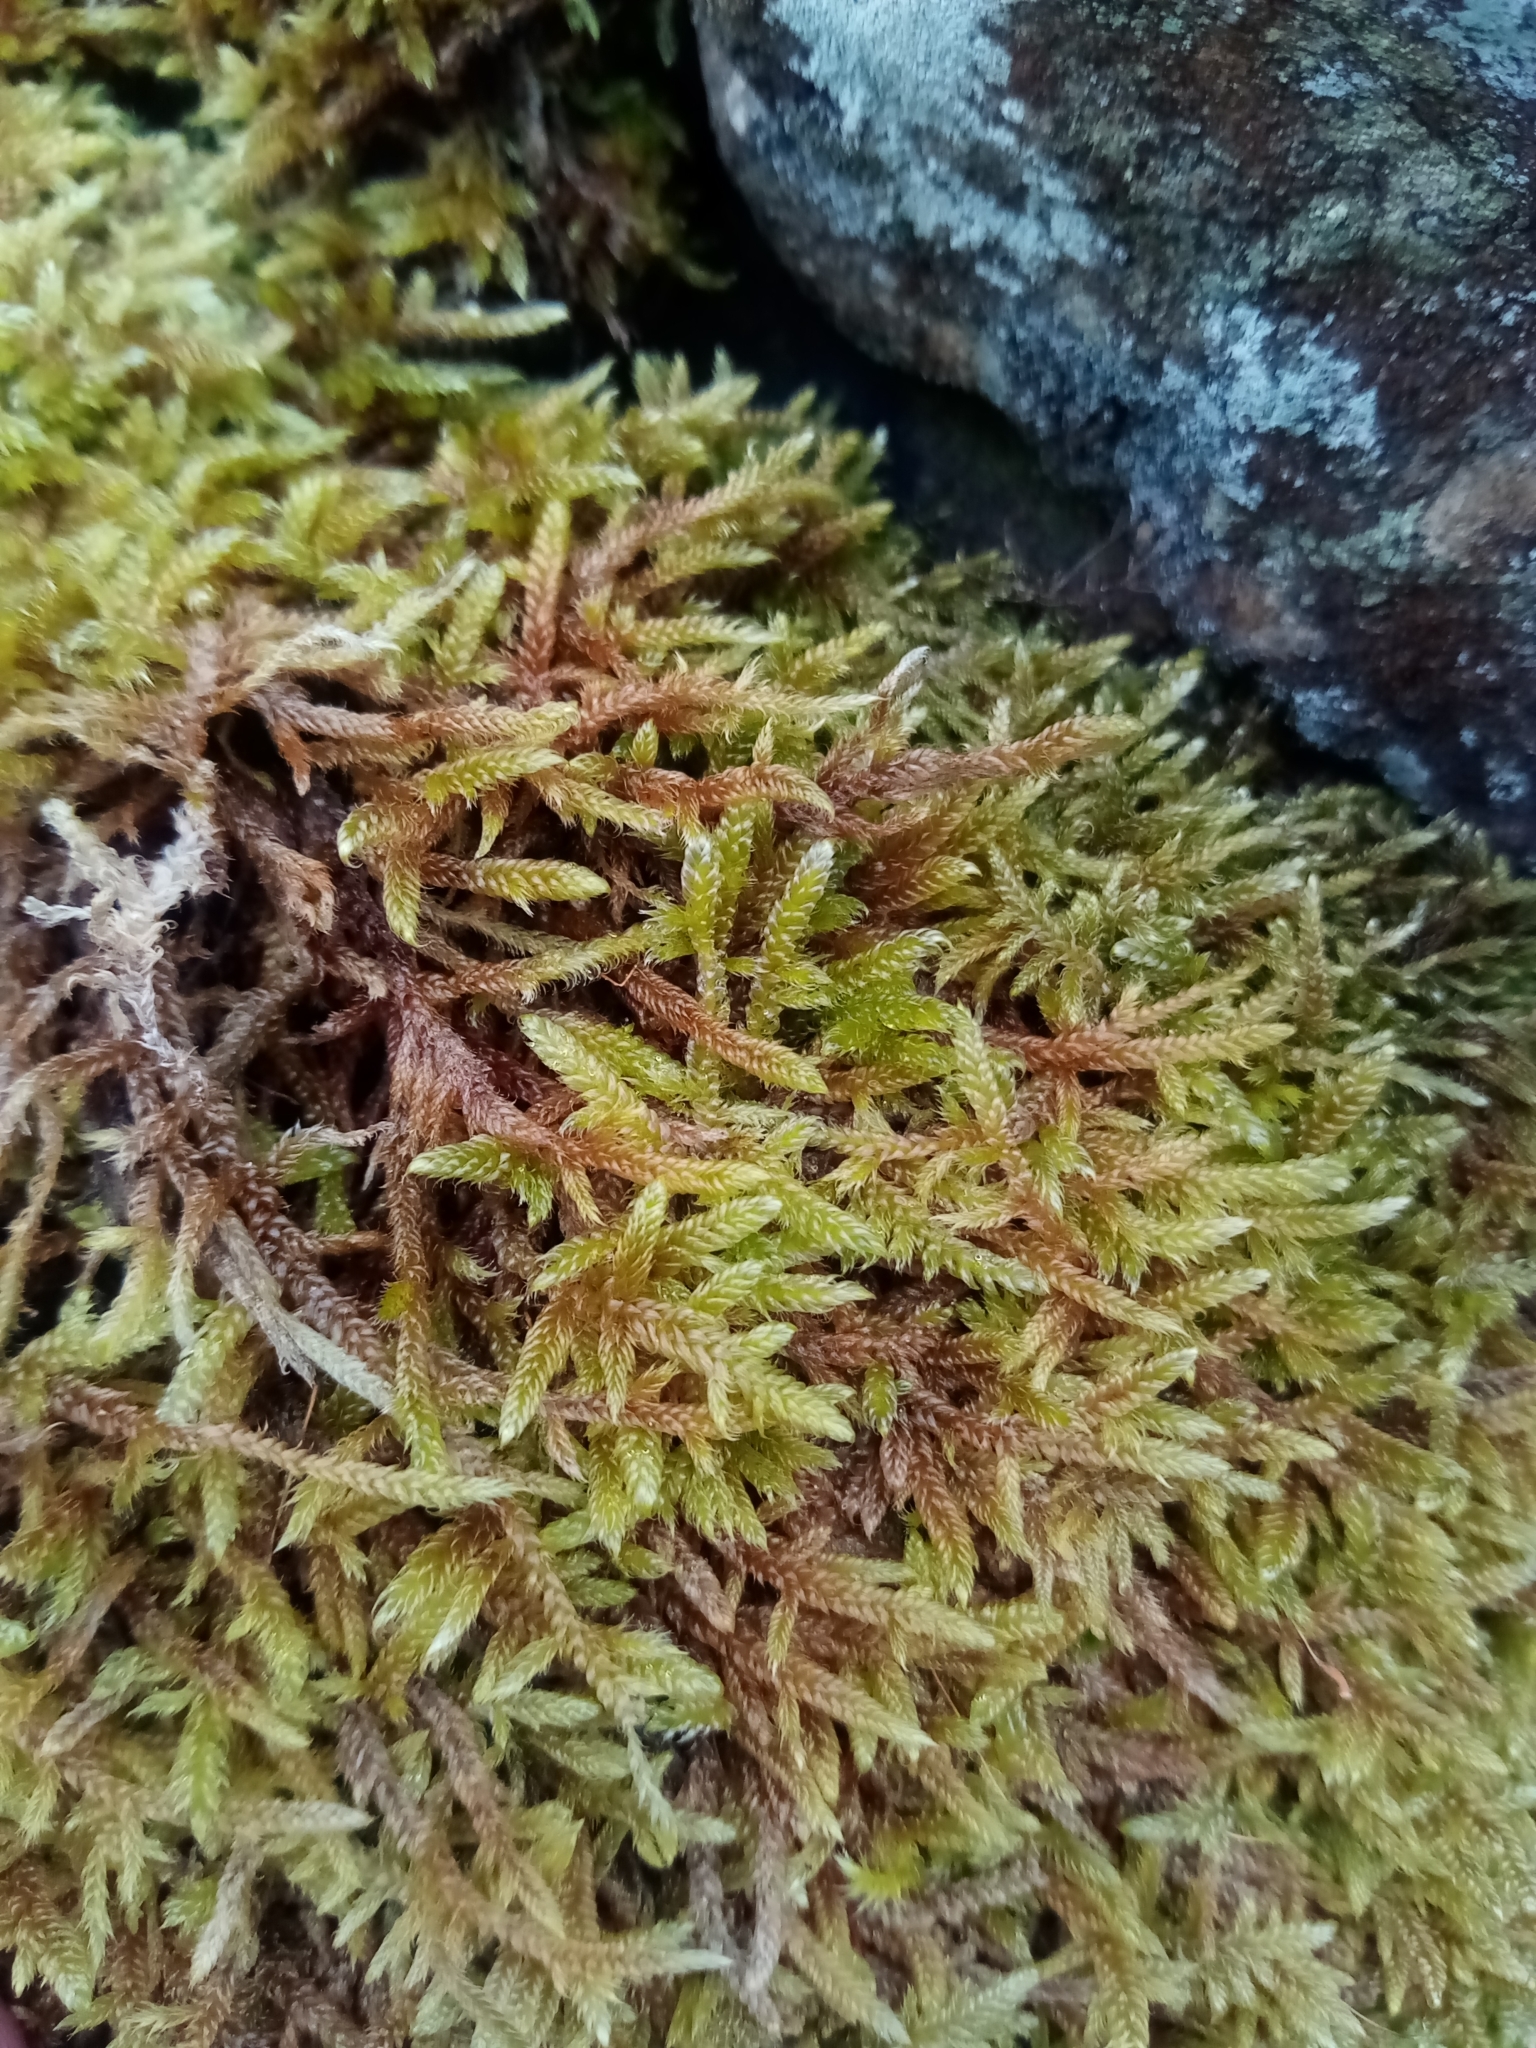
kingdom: Plantae
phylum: Bryophyta
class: Bryopsida
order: Hypnales
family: Hypnaceae
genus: Hypnum
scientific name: Hypnum cupressiforme
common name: Cypress-leaved plait-moss
